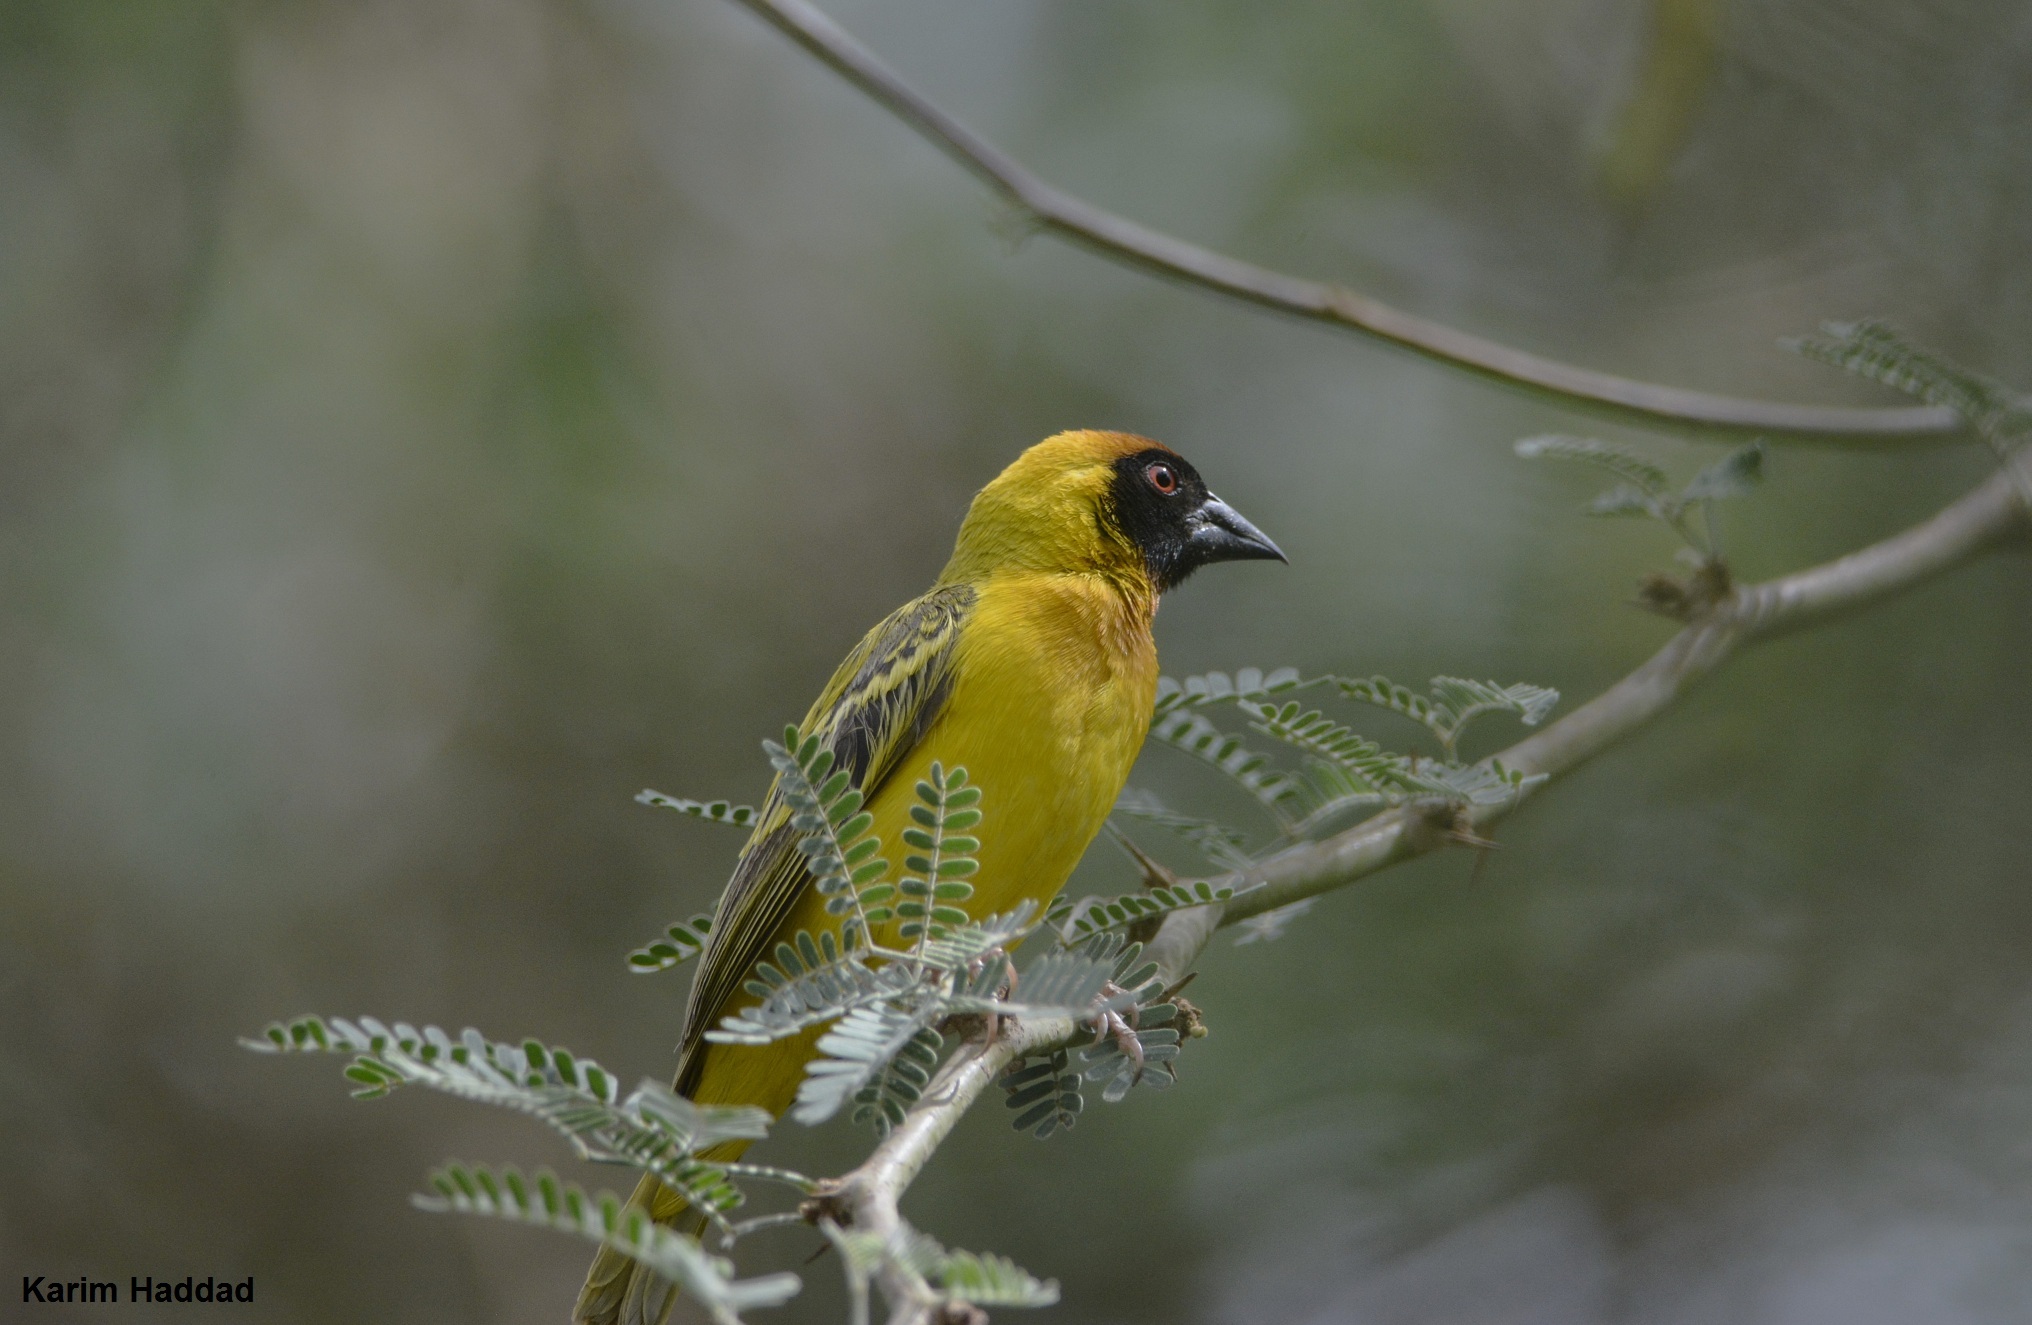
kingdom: Animalia
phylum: Chordata
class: Aves
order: Passeriformes
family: Ploceidae
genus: Ploceus
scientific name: Ploceus vitellinus
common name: Vitelline masked weaver
